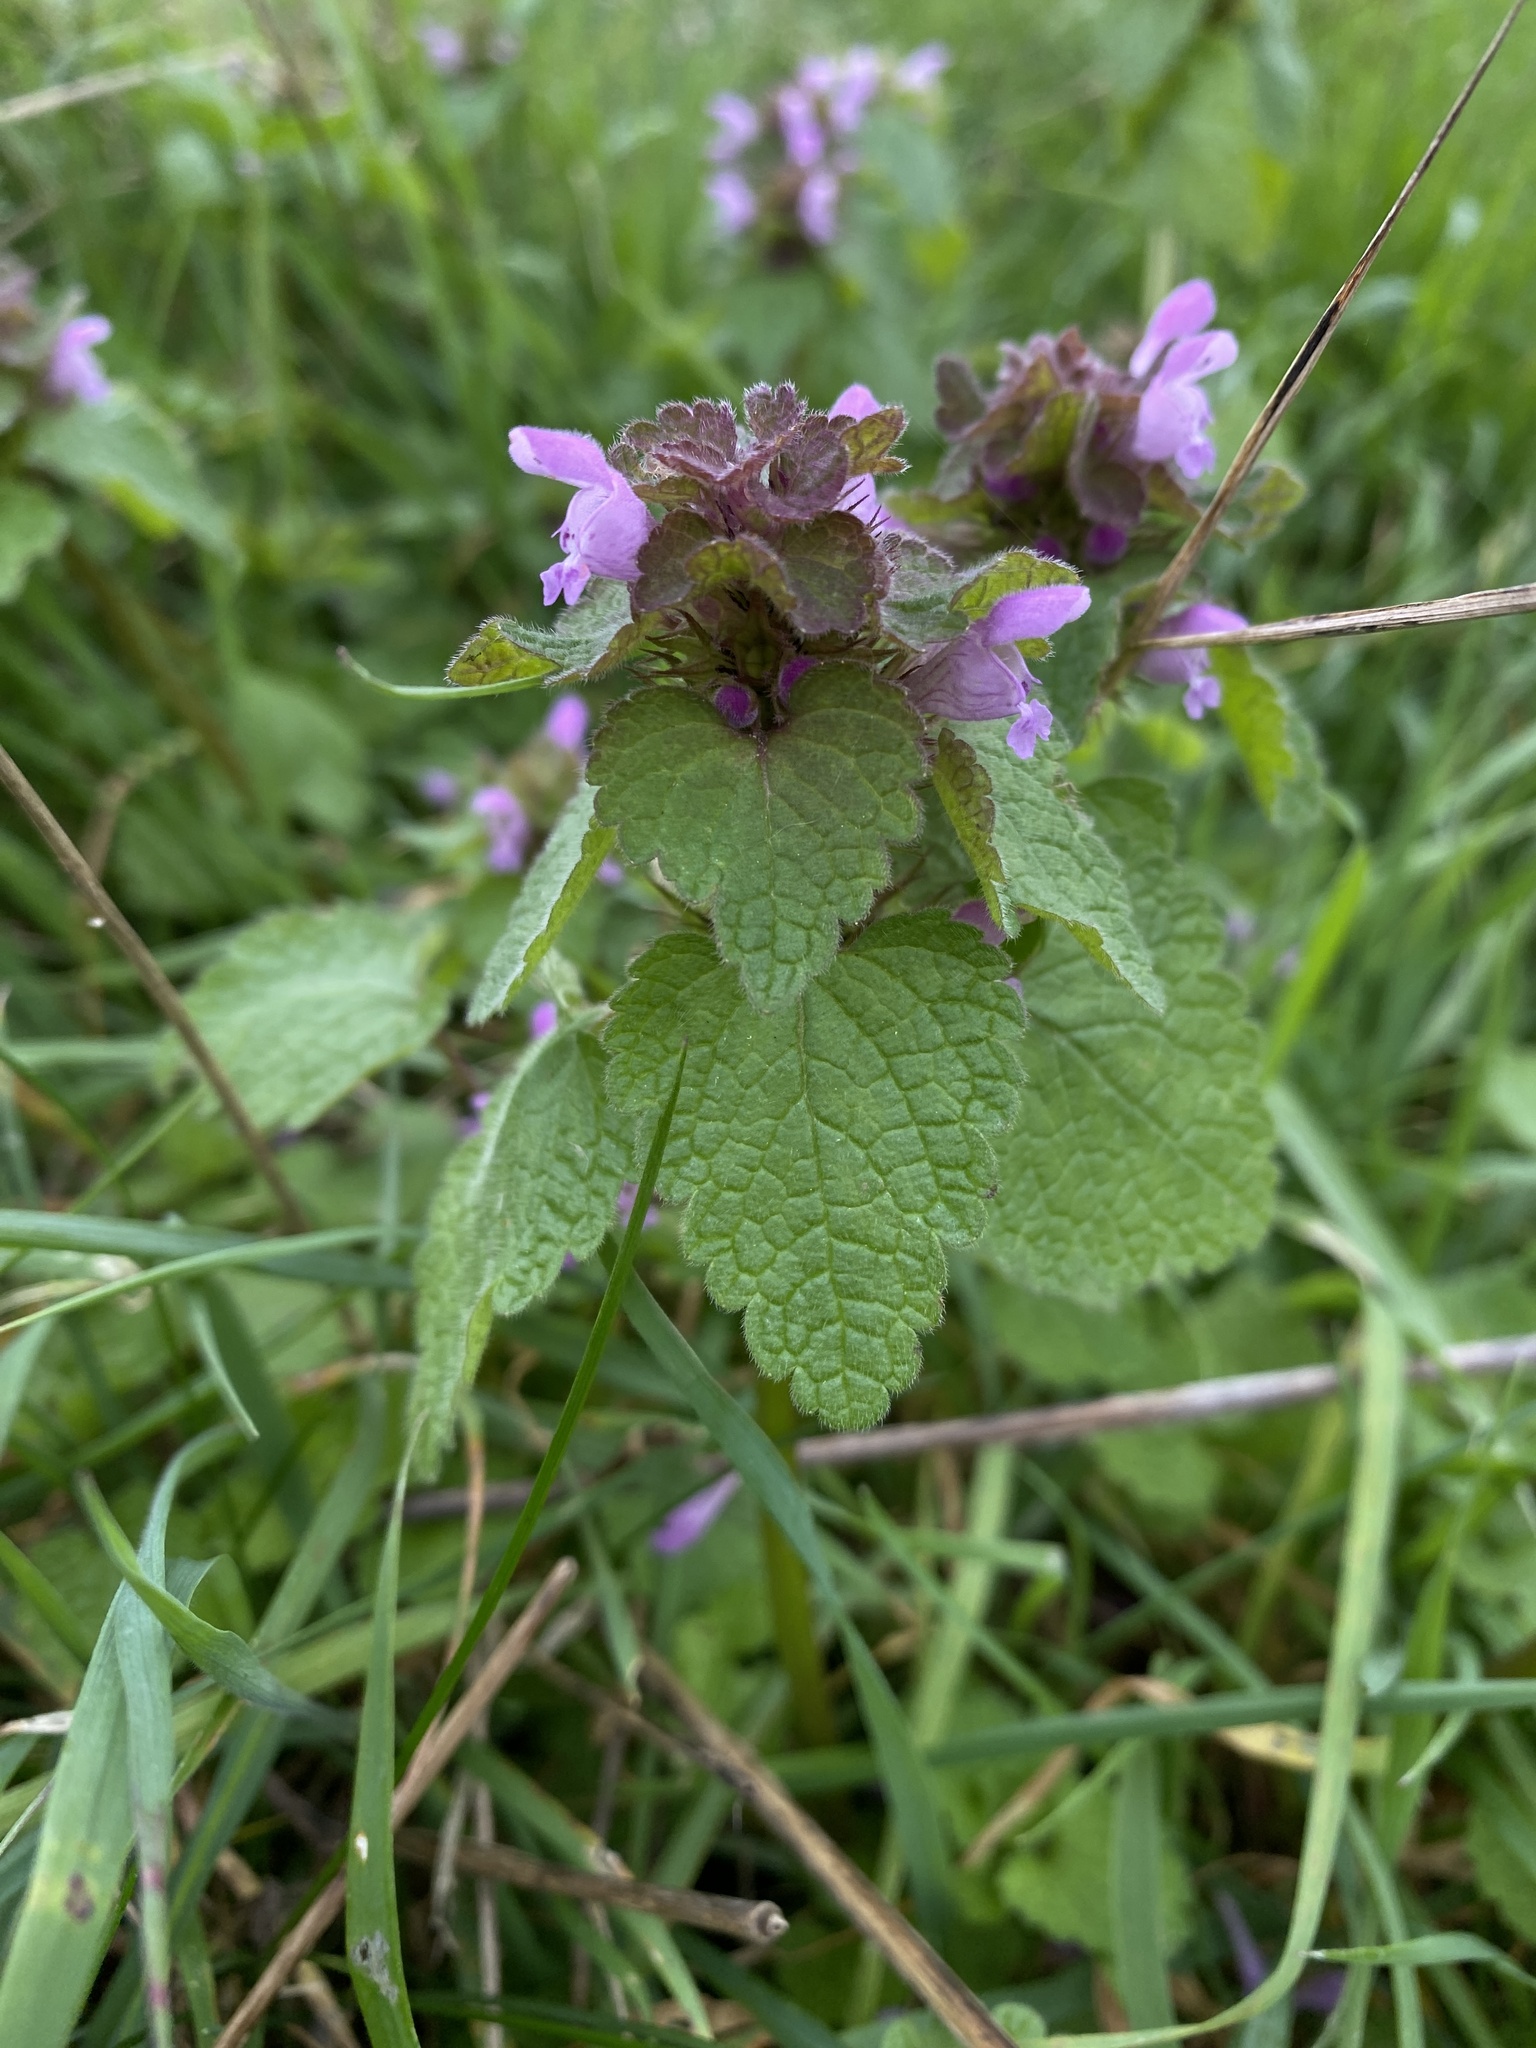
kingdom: Plantae
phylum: Tracheophyta
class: Magnoliopsida
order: Lamiales
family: Lamiaceae
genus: Lamium
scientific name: Lamium purpureum
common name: Red dead-nettle
